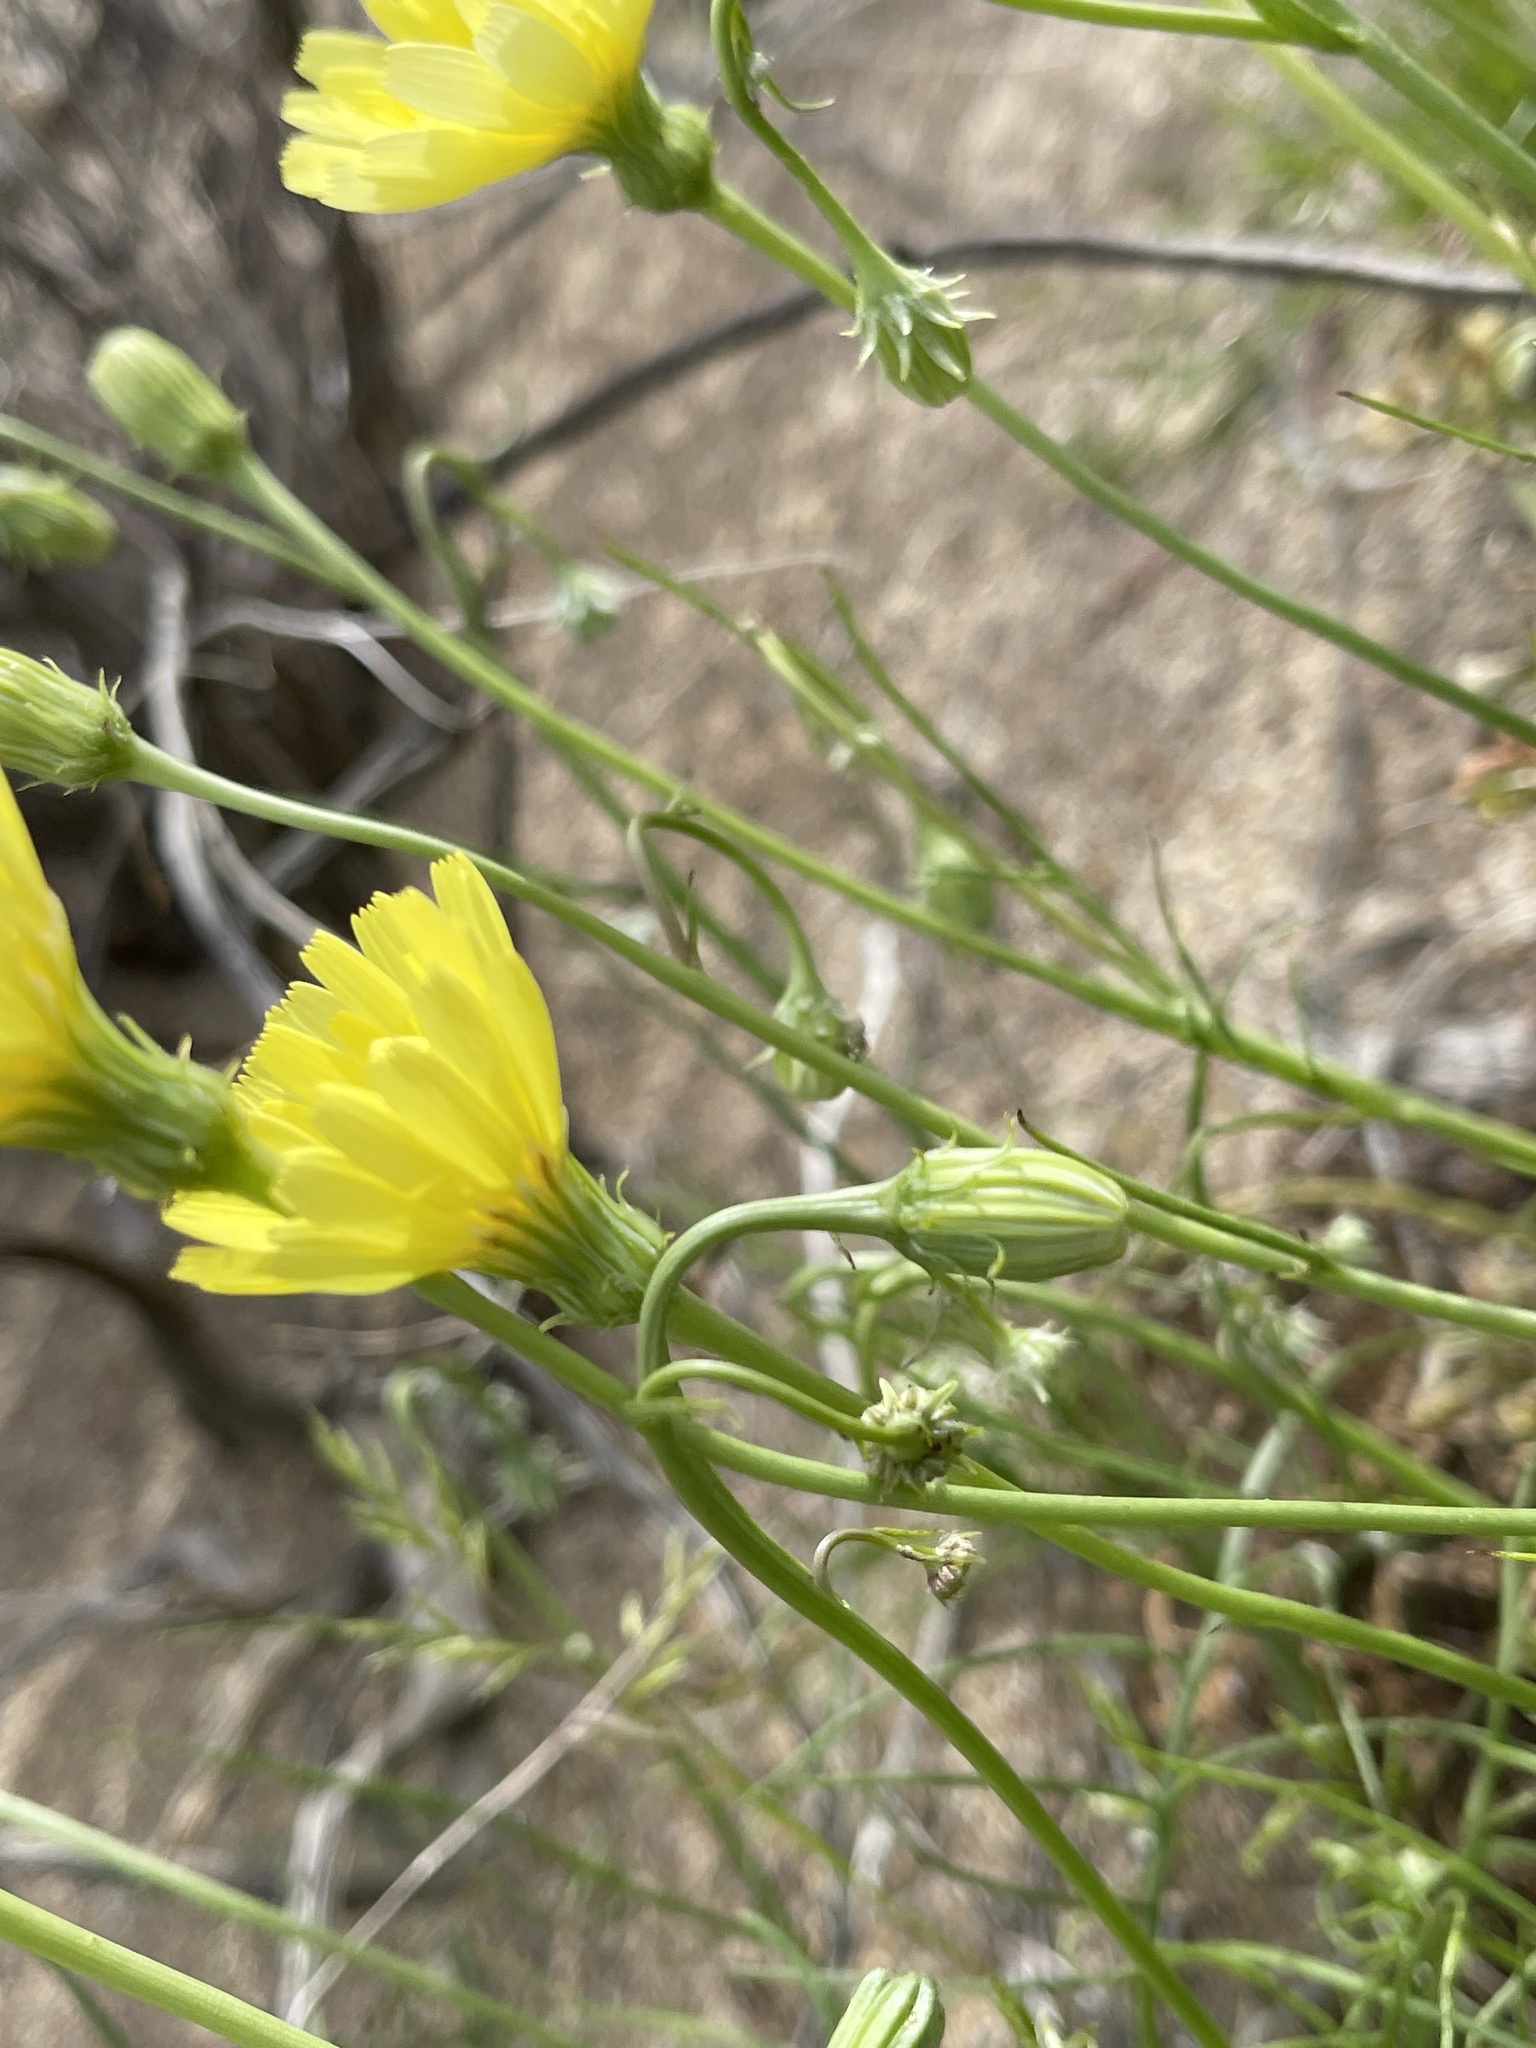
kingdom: Plantae
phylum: Tracheophyta
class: Magnoliopsida
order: Asterales
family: Asteraceae
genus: Malacothrix
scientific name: Malacothrix glabrata
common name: Smooth desert-dandelion
